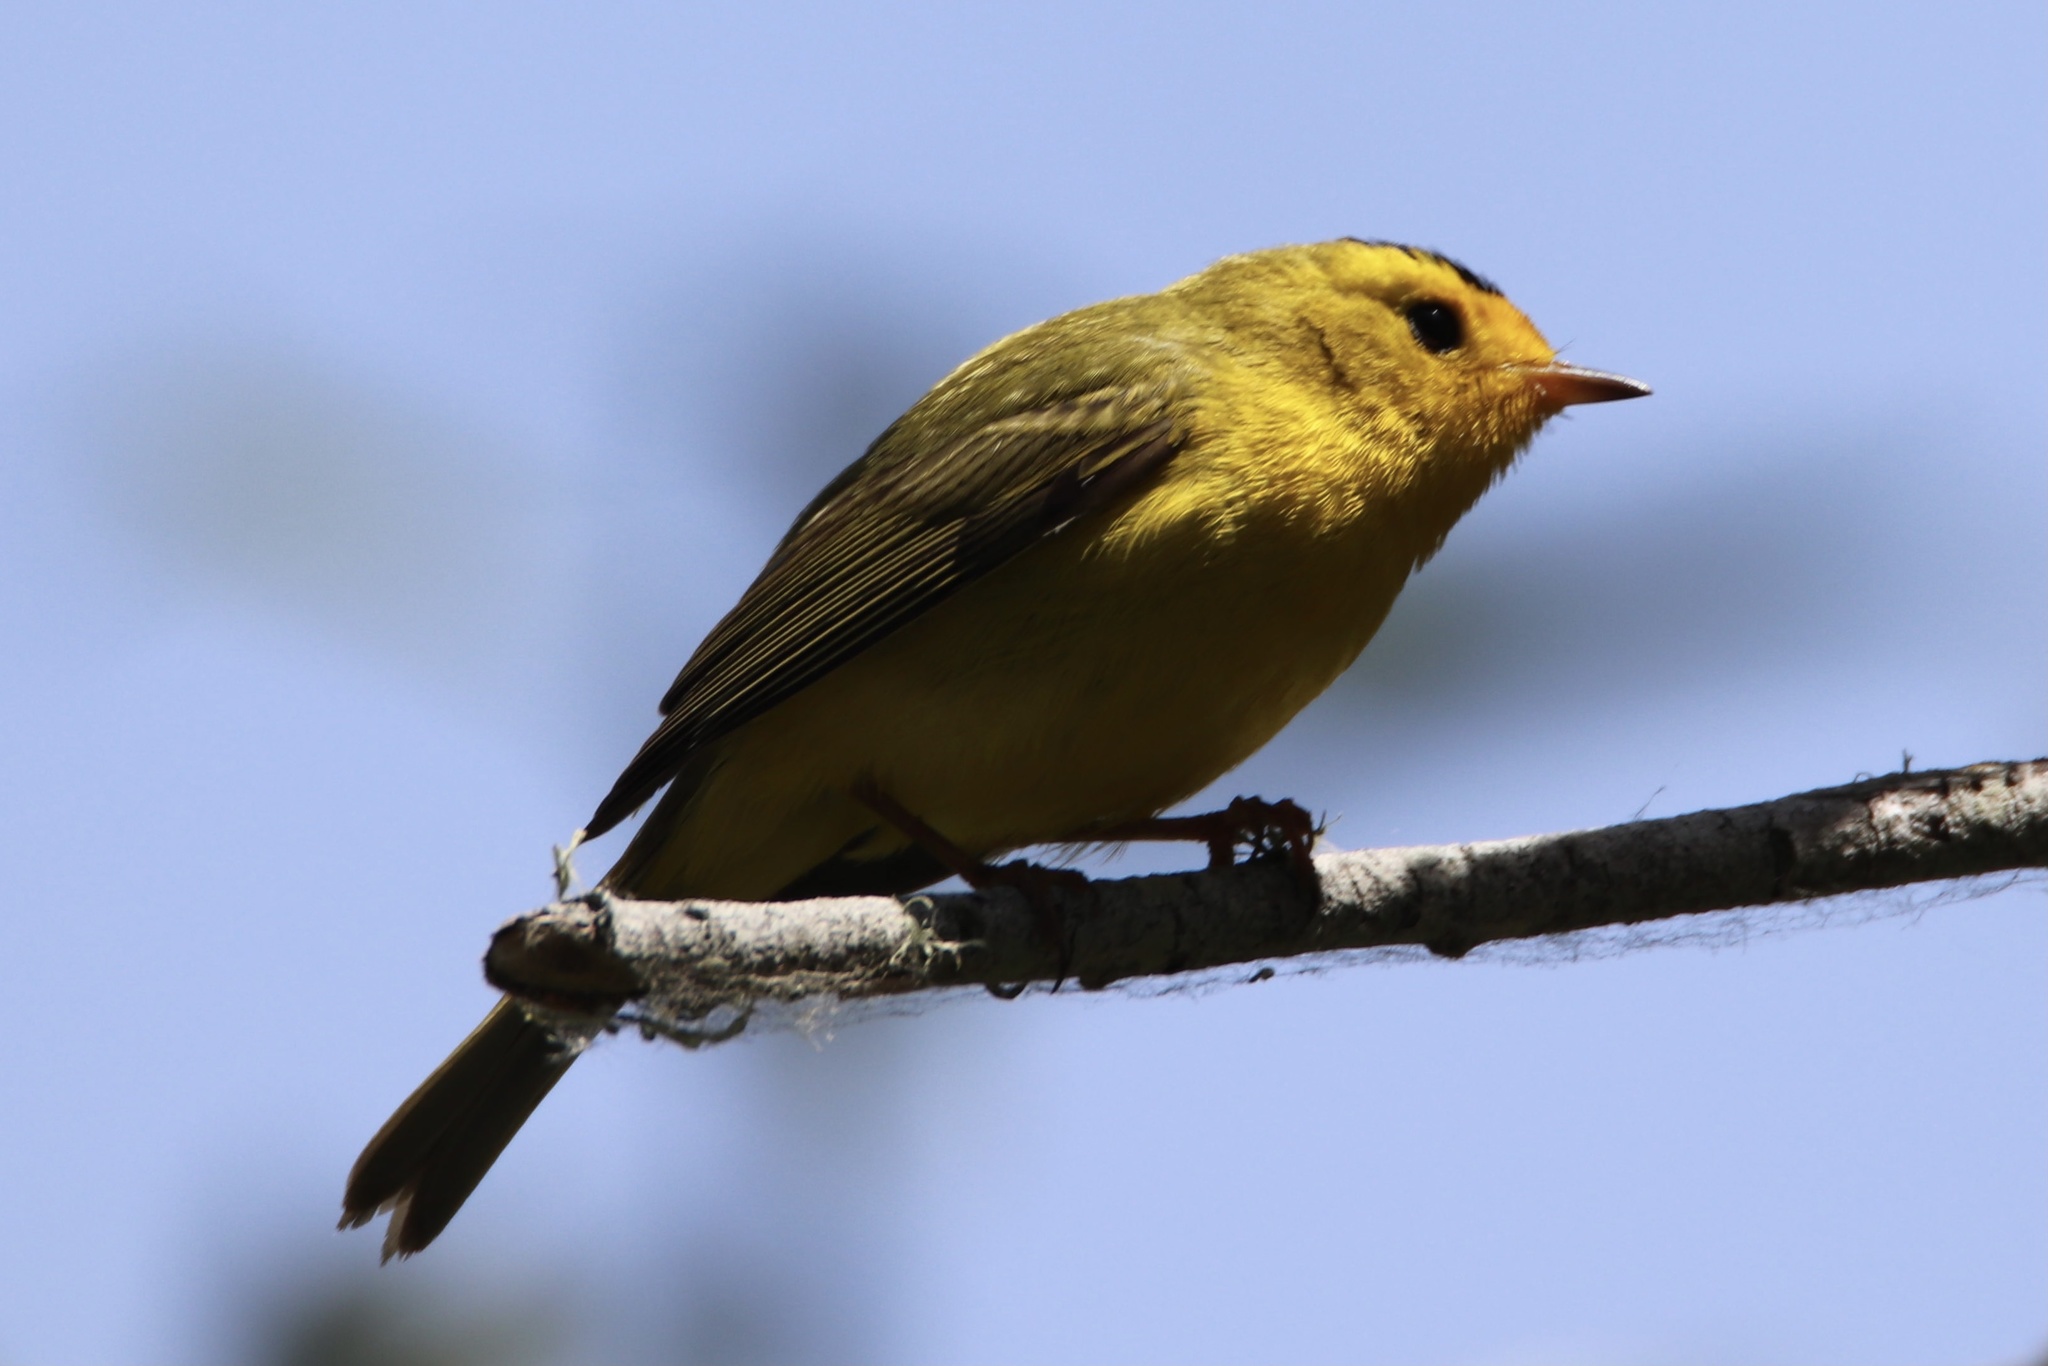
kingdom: Animalia
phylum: Chordata
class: Aves
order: Passeriformes
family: Parulidae
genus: Cardellina
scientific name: Cardellina pusilla
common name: Wilson's warbler
